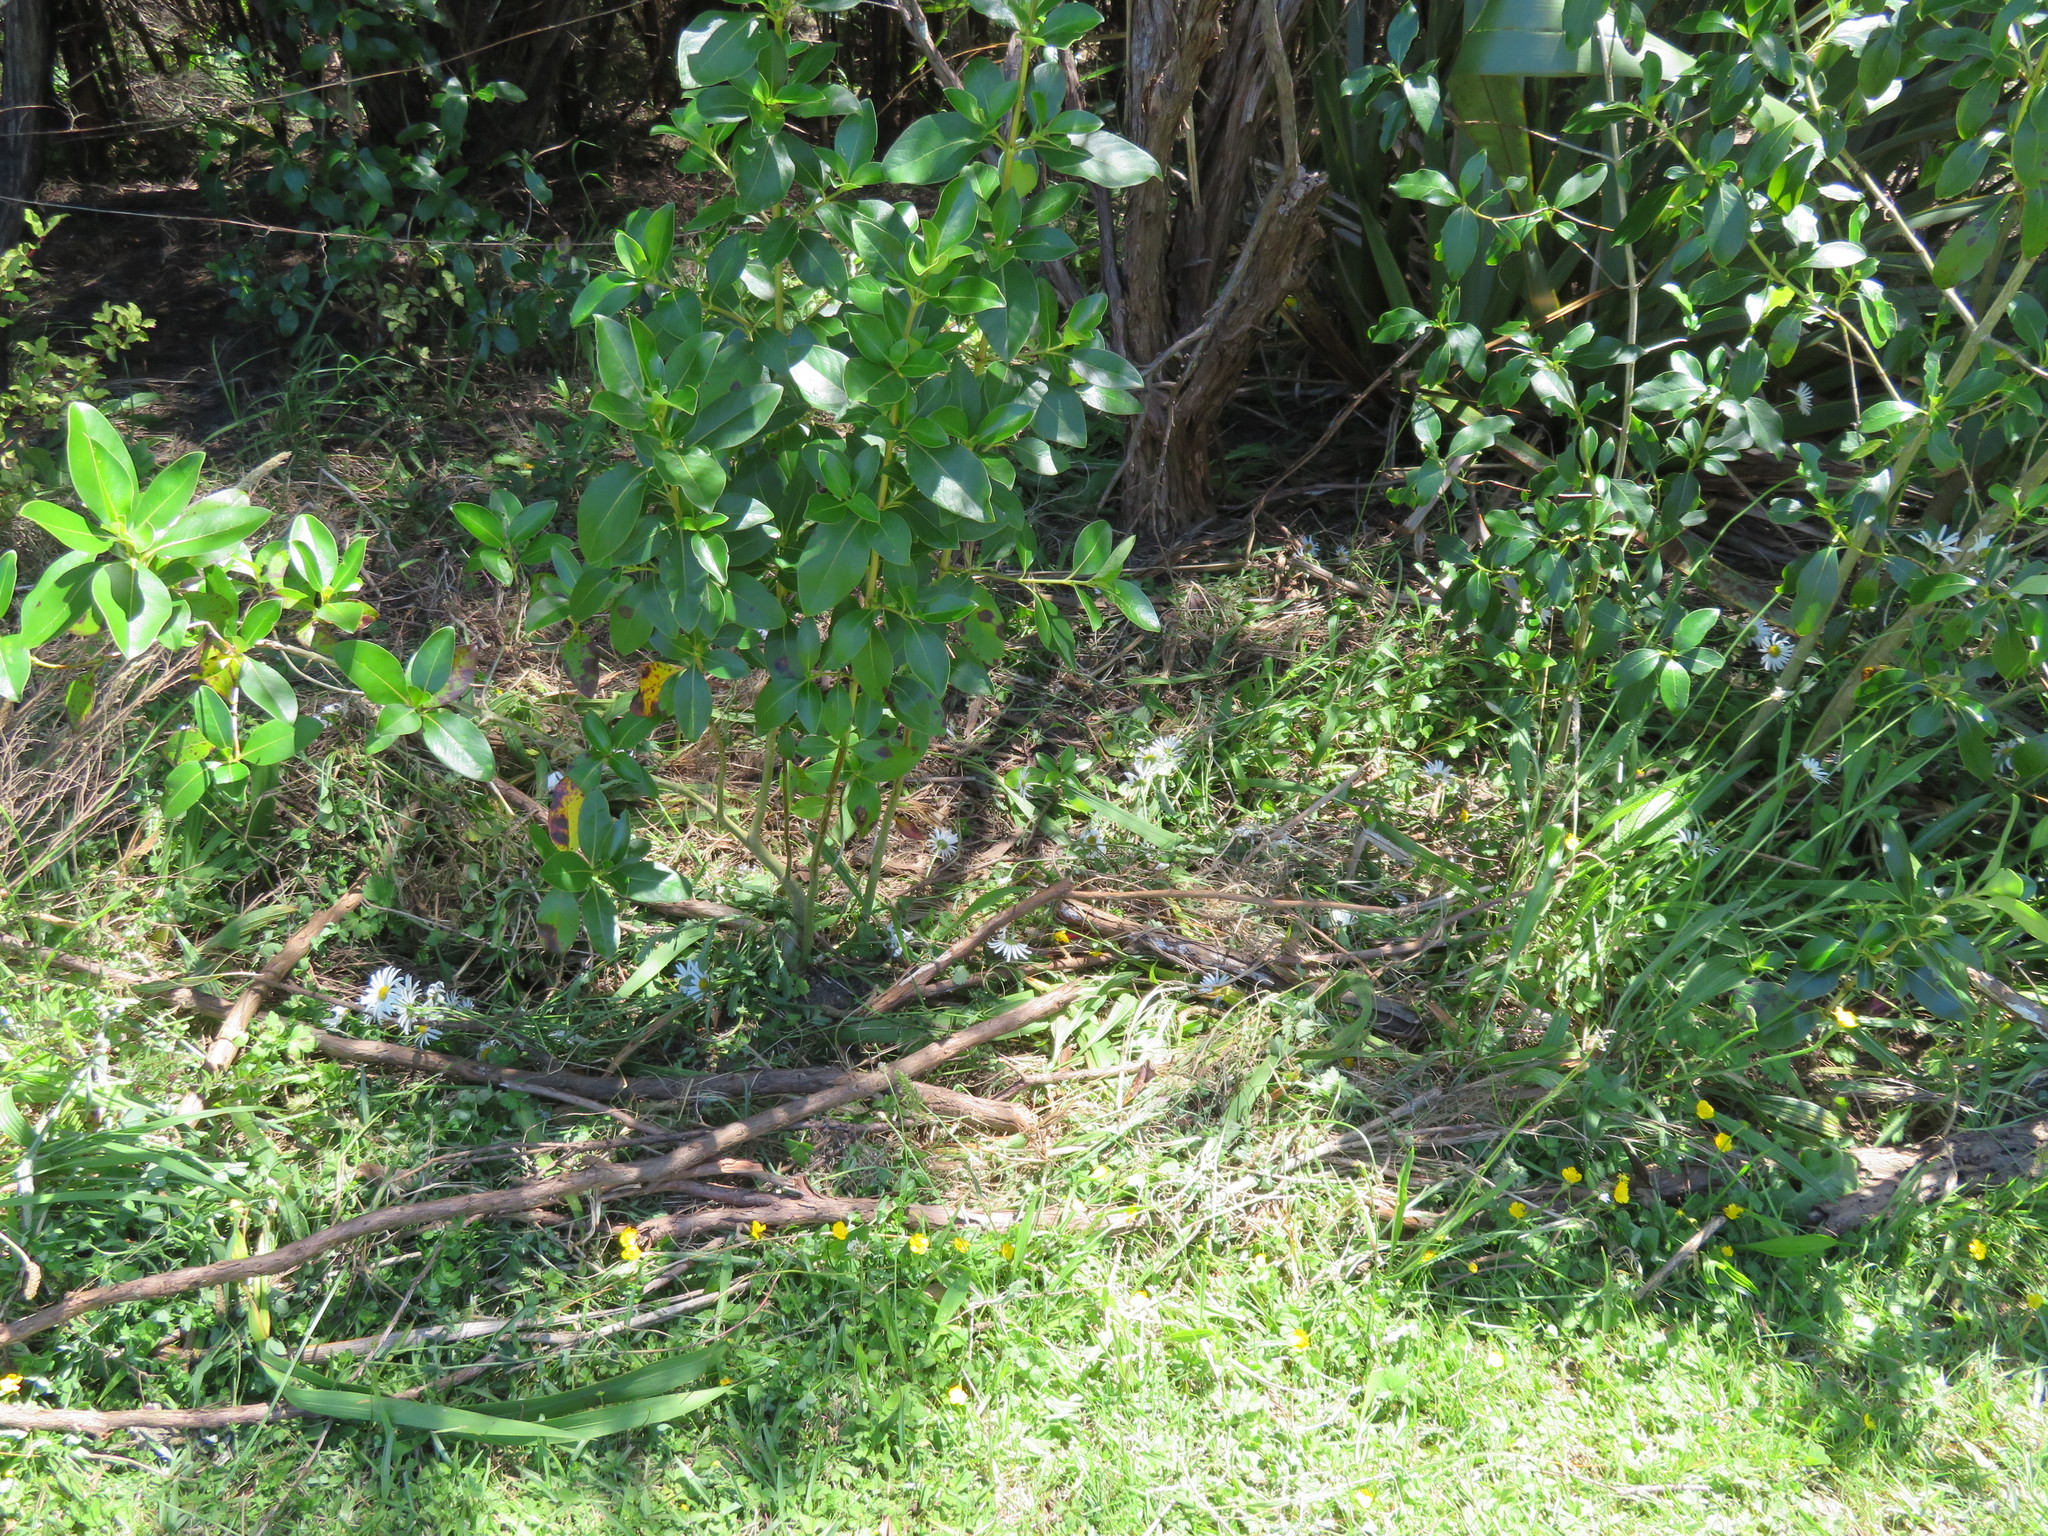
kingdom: Plantae
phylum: Tracheophyta
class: Magnoliopsida
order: Gentianales
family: Rubiaceae
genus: Coprosma
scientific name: Coprosma robusta
